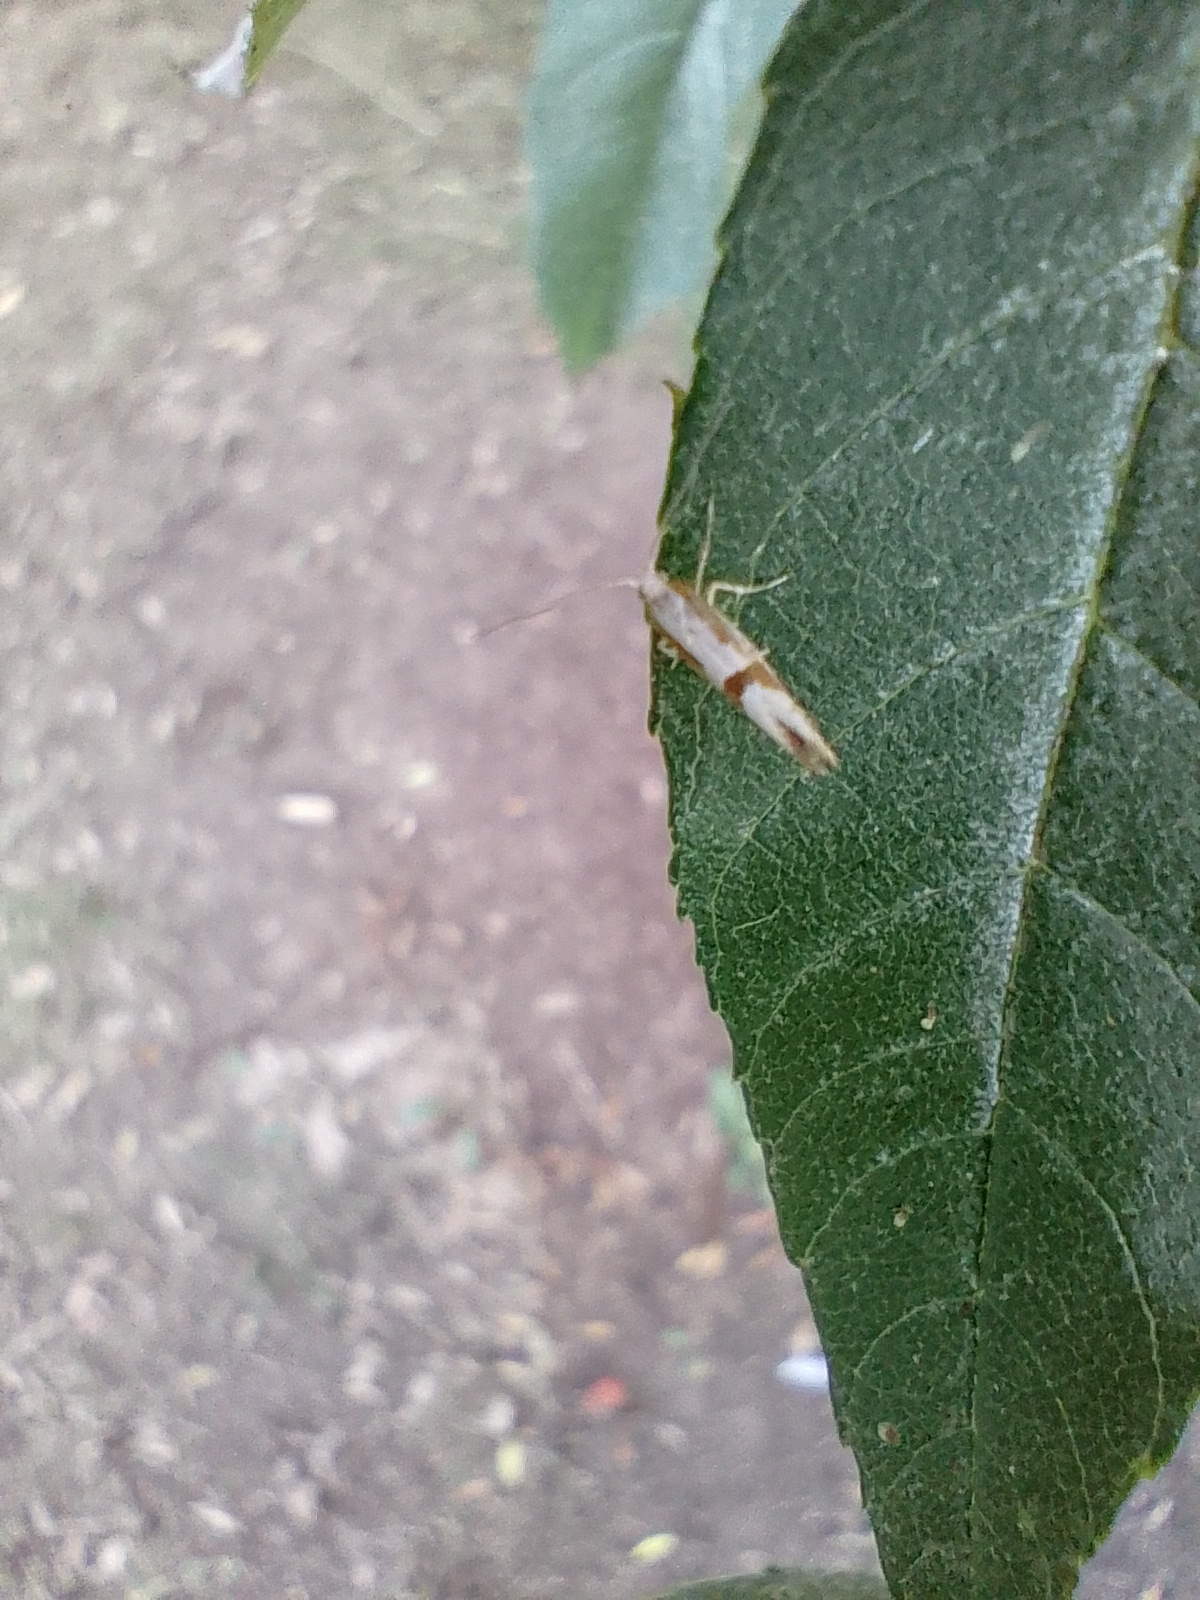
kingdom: Animalia
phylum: Arthropoda
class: Insecta
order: Lepidoptera
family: Argyresthiidae
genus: Argyresthia
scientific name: Argyresthia pruniella
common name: Cherry fruit moth
